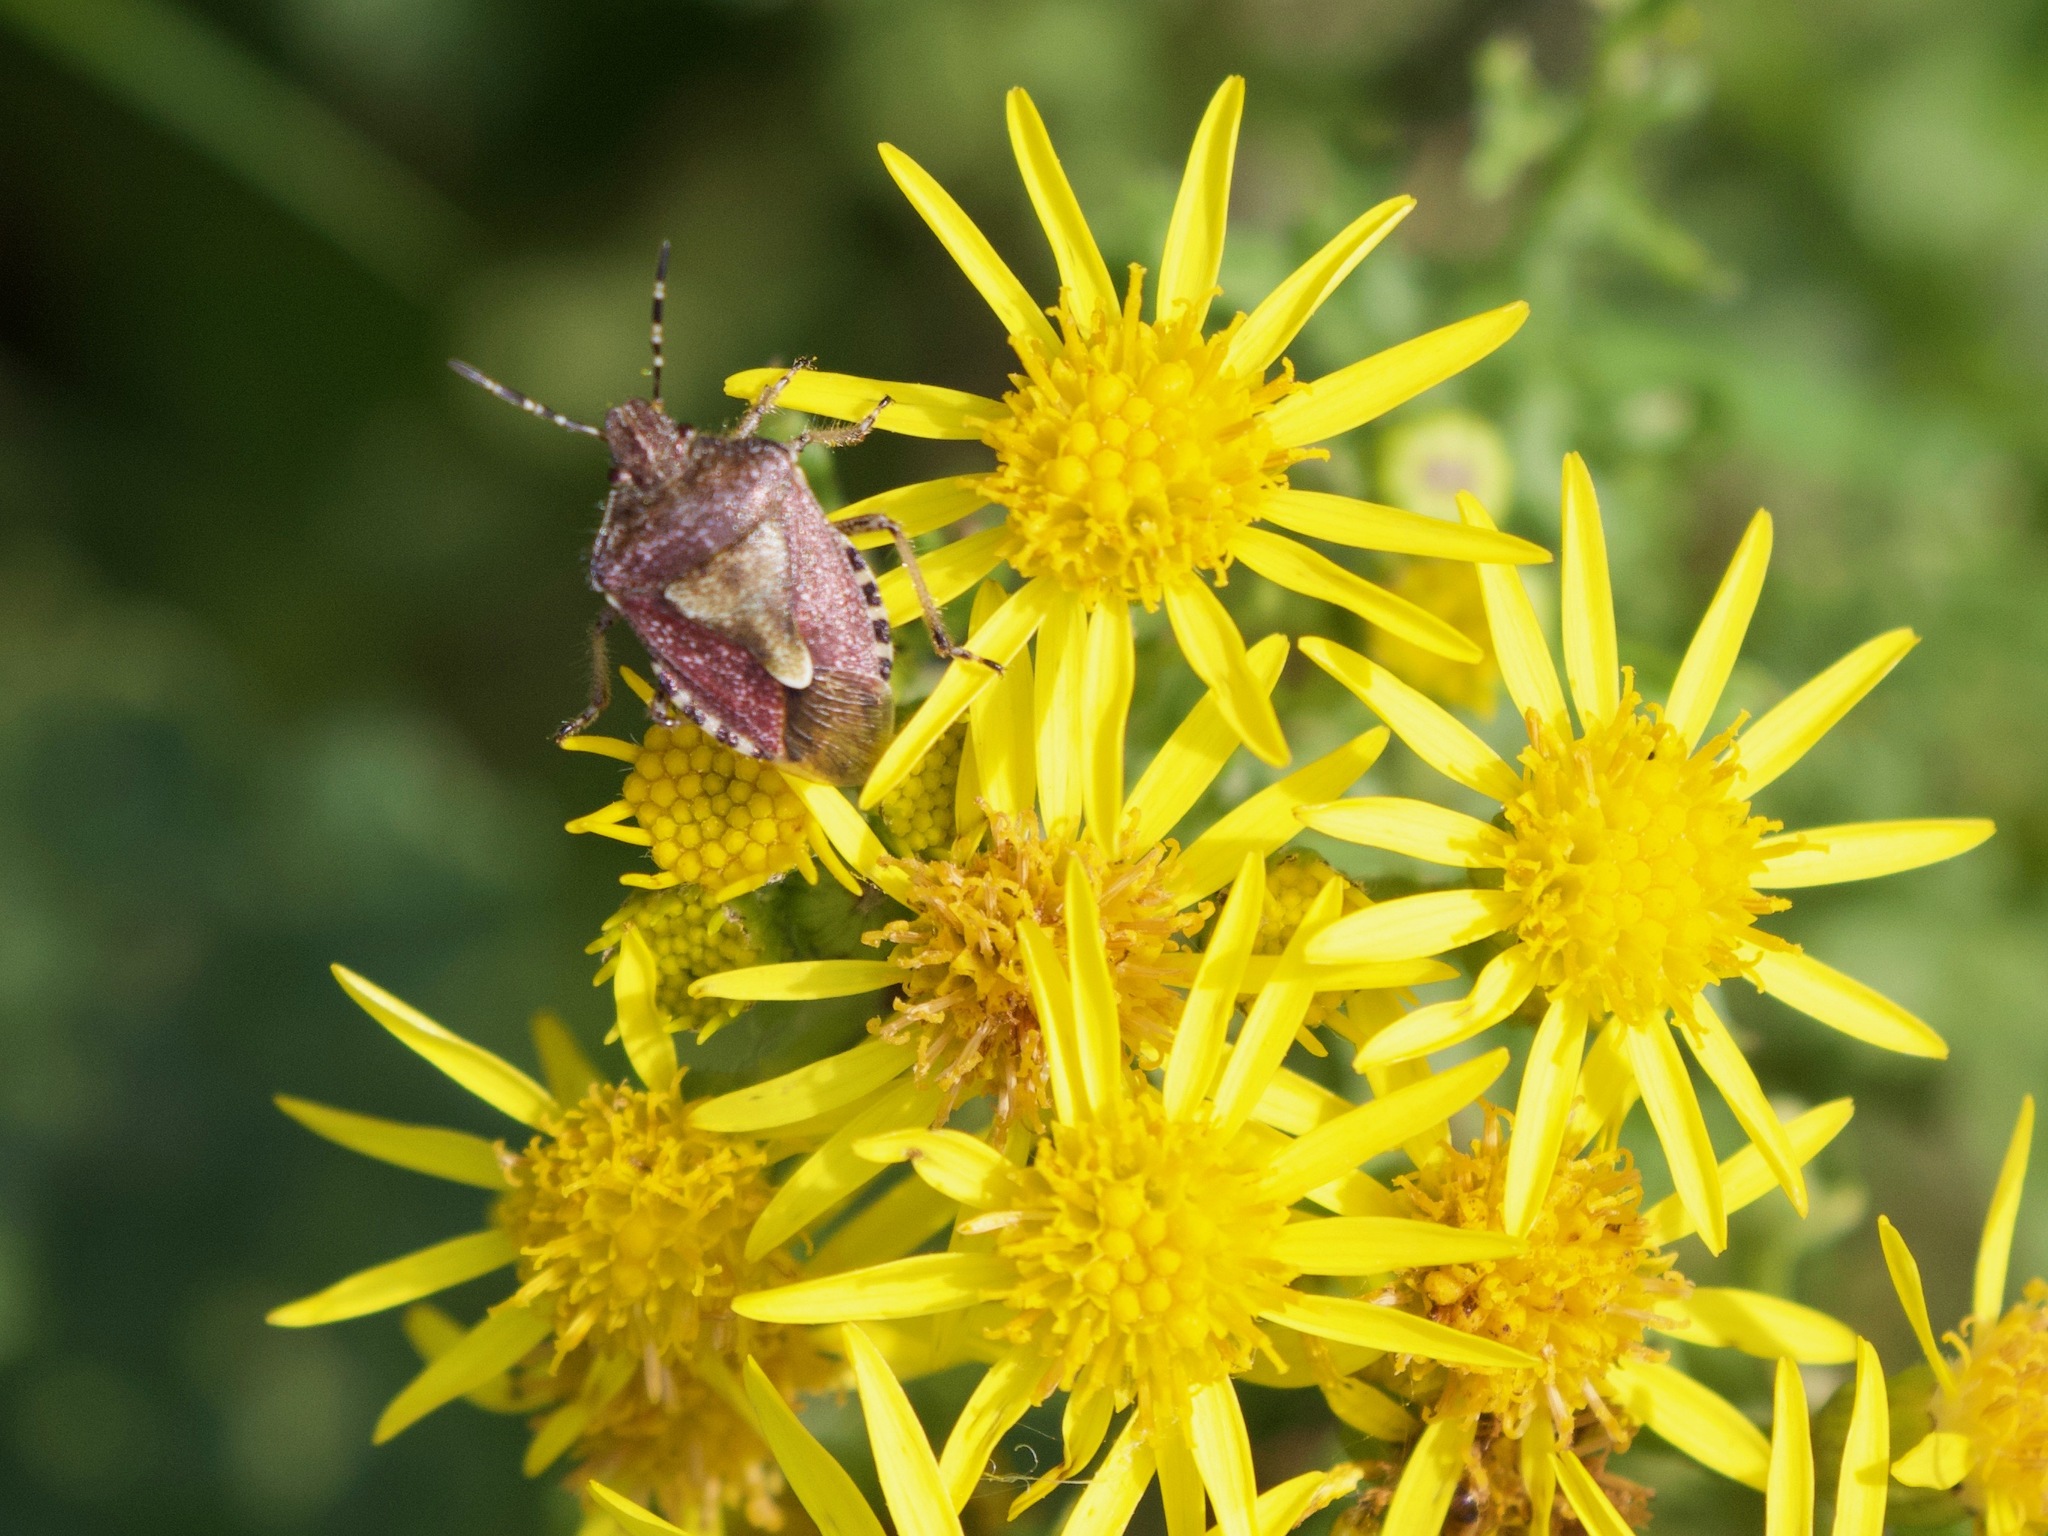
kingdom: Animalia
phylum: Arthropoda
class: Insecta
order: Hemiptera
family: Pentatomidae
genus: Dolycoris
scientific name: Dolycoris baccarum
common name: Sloe bug
